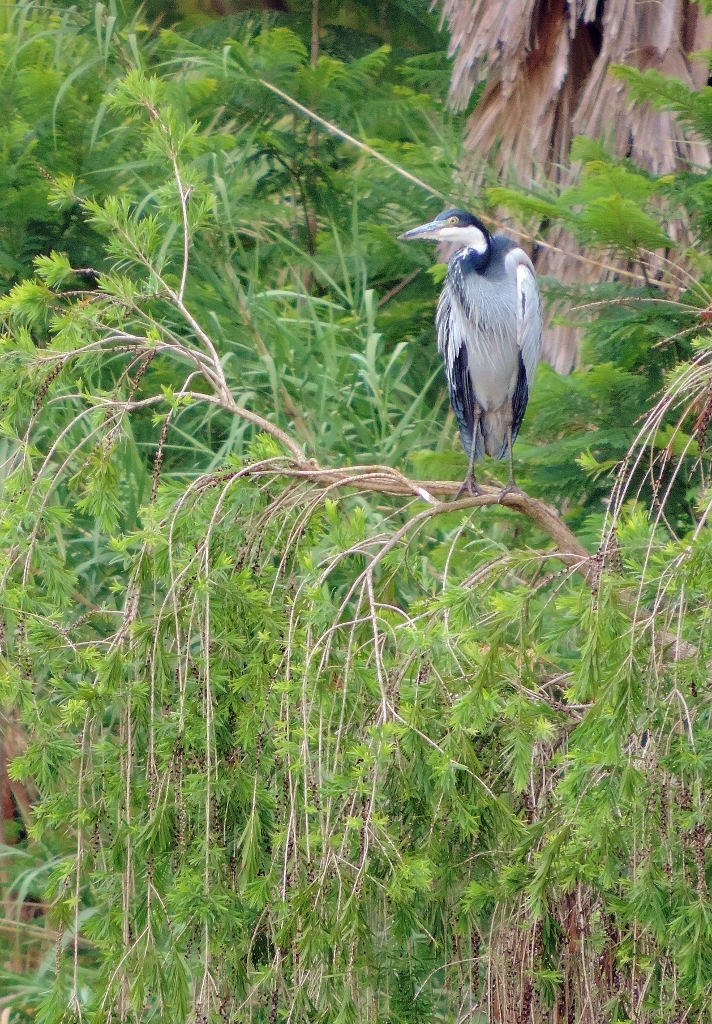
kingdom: Animalia
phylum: Chordata
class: Aves
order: Pelecaniformes
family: Ardeidae
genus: Ardea
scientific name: Ardea melanocephala
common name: Black-headed heron
